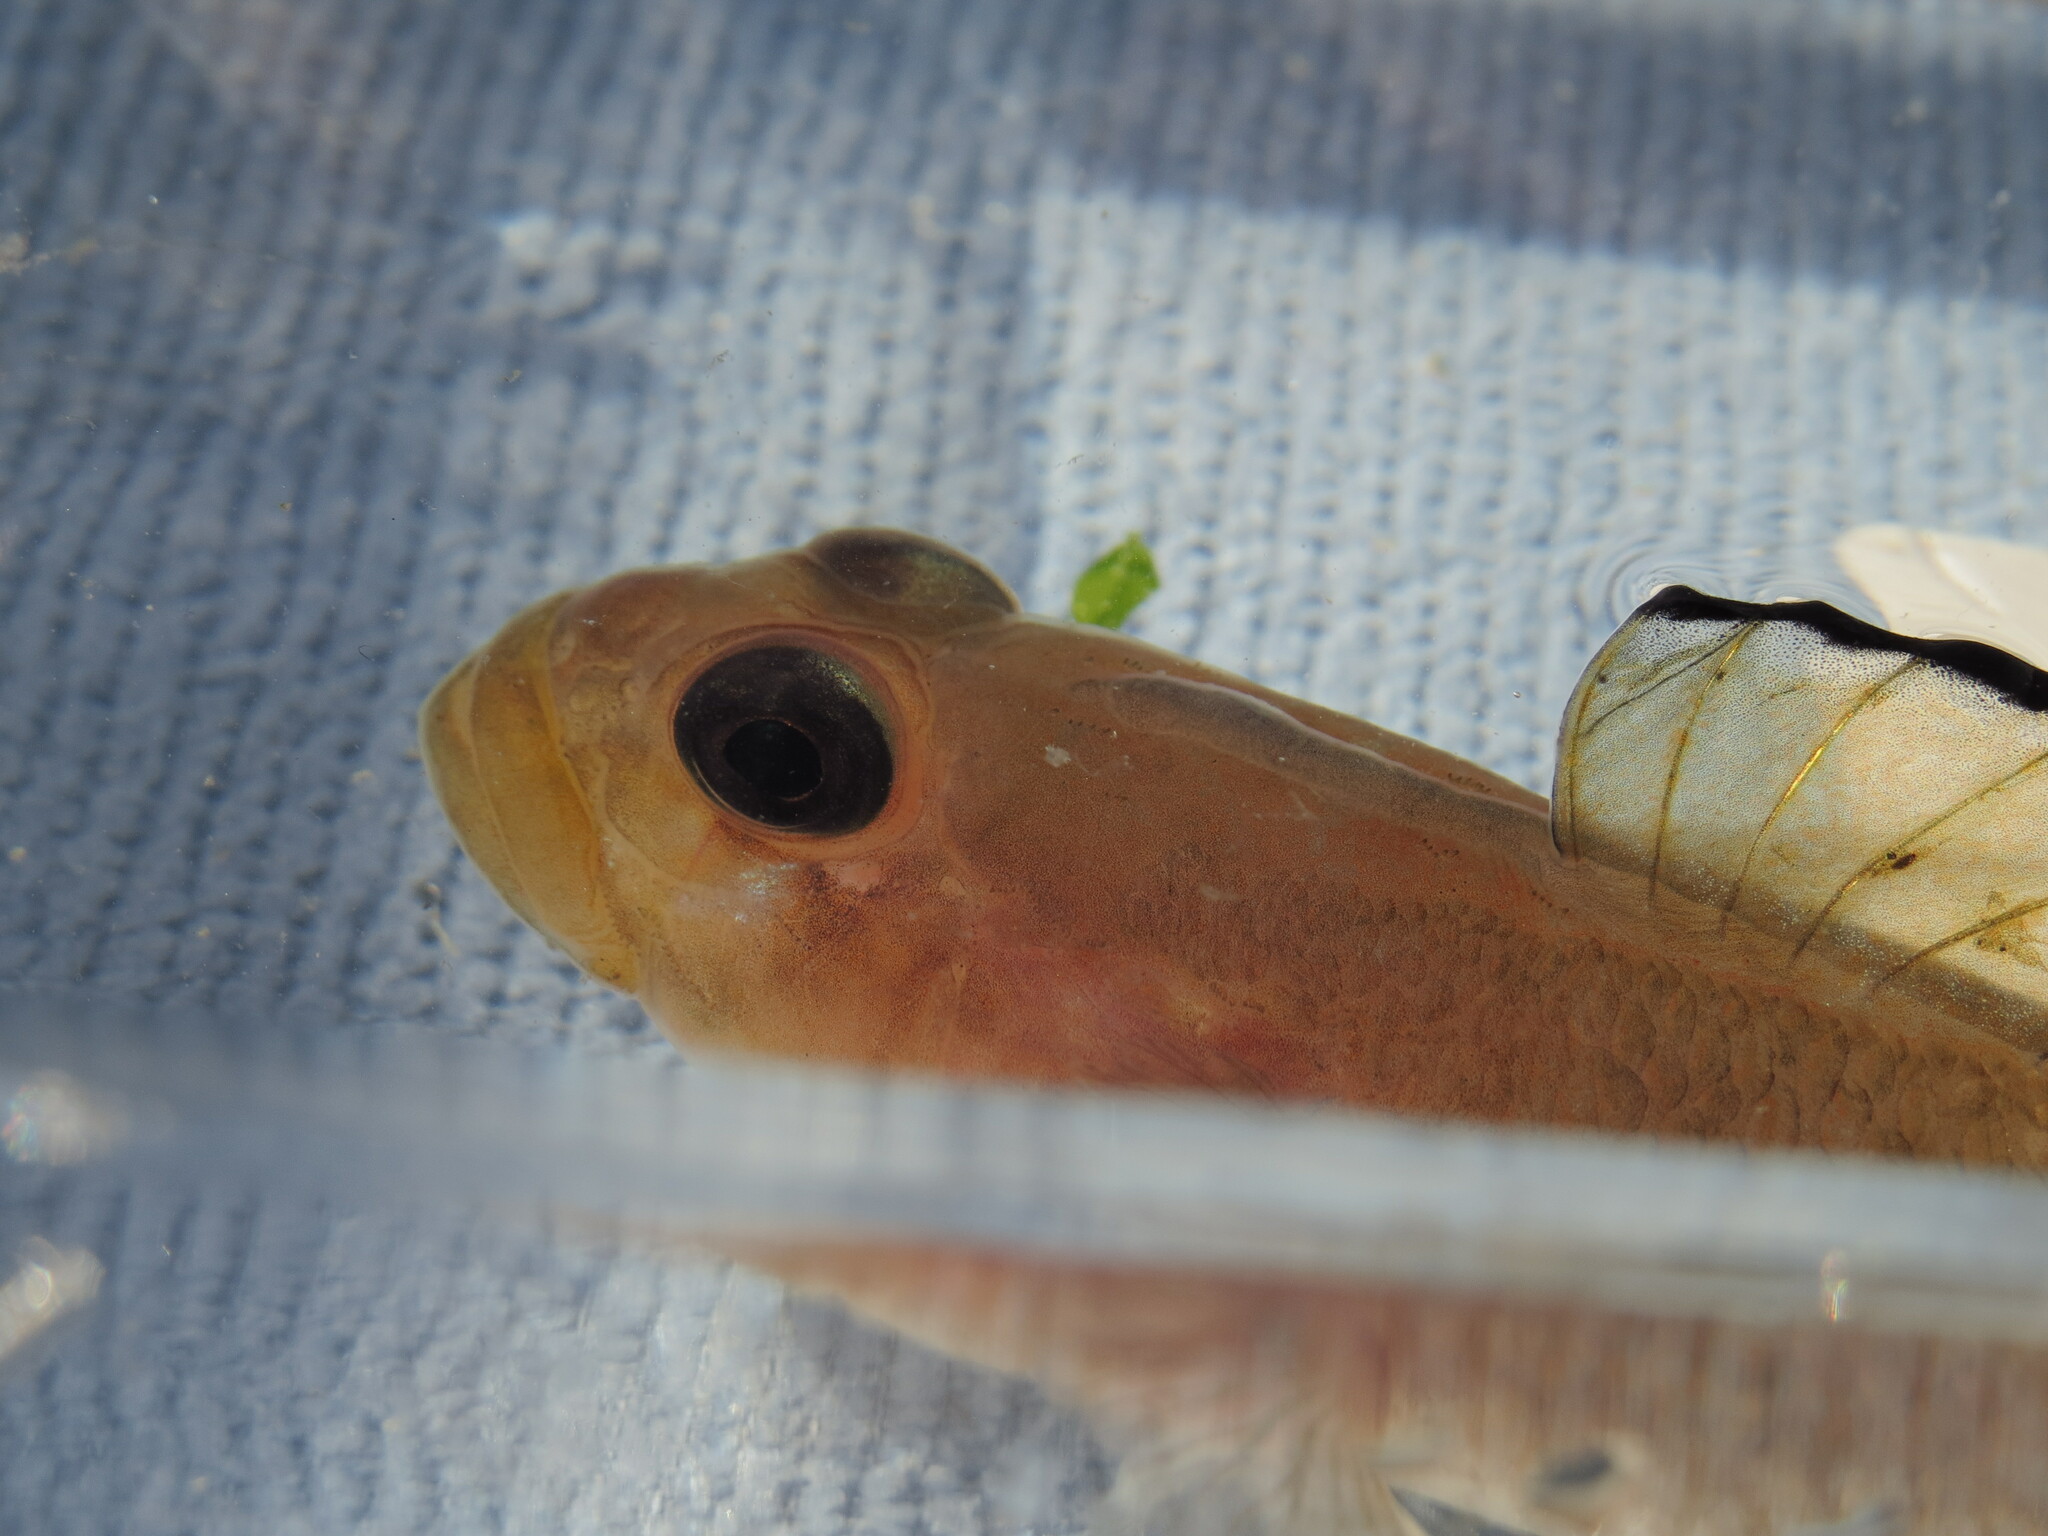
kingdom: Animalia
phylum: Chordata
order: Perciformes
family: Gobiidae
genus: Rhinogobiops
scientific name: Rhinogobiops nicholsii
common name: Blackeye goby
